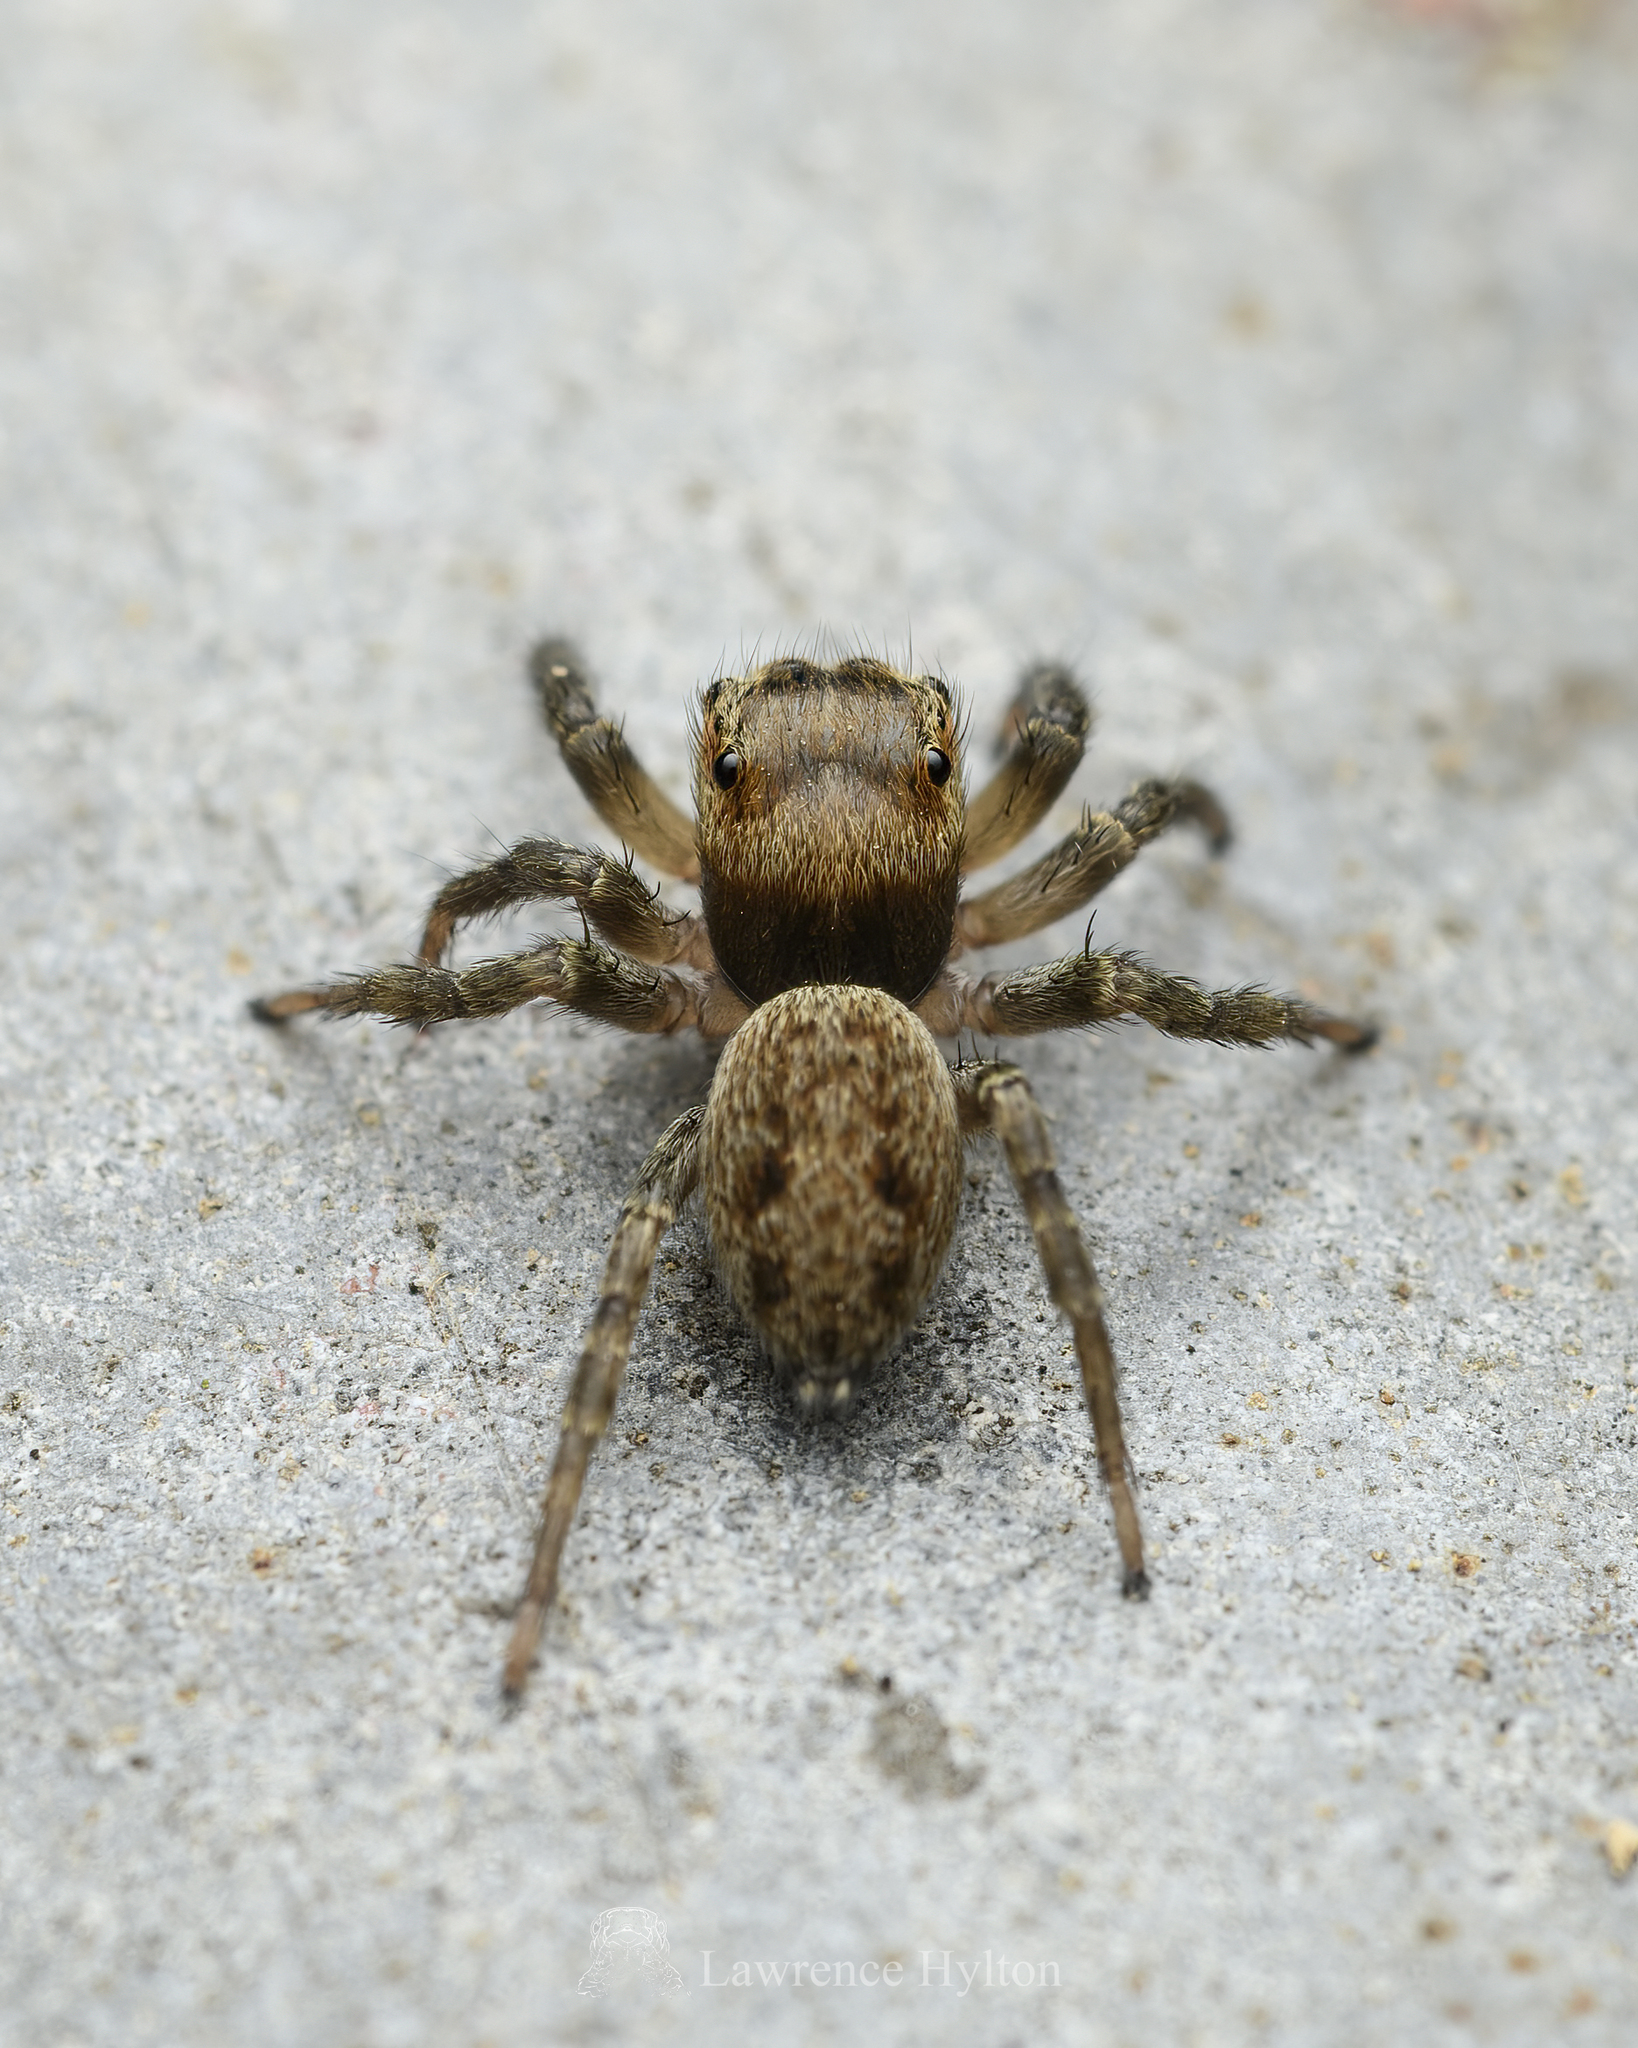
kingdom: Animalia
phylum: Arthropoda
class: Arachnida
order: Araneae
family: Salticidae
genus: Hasarius
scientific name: Hasarius adansoni
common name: Jumping spider
